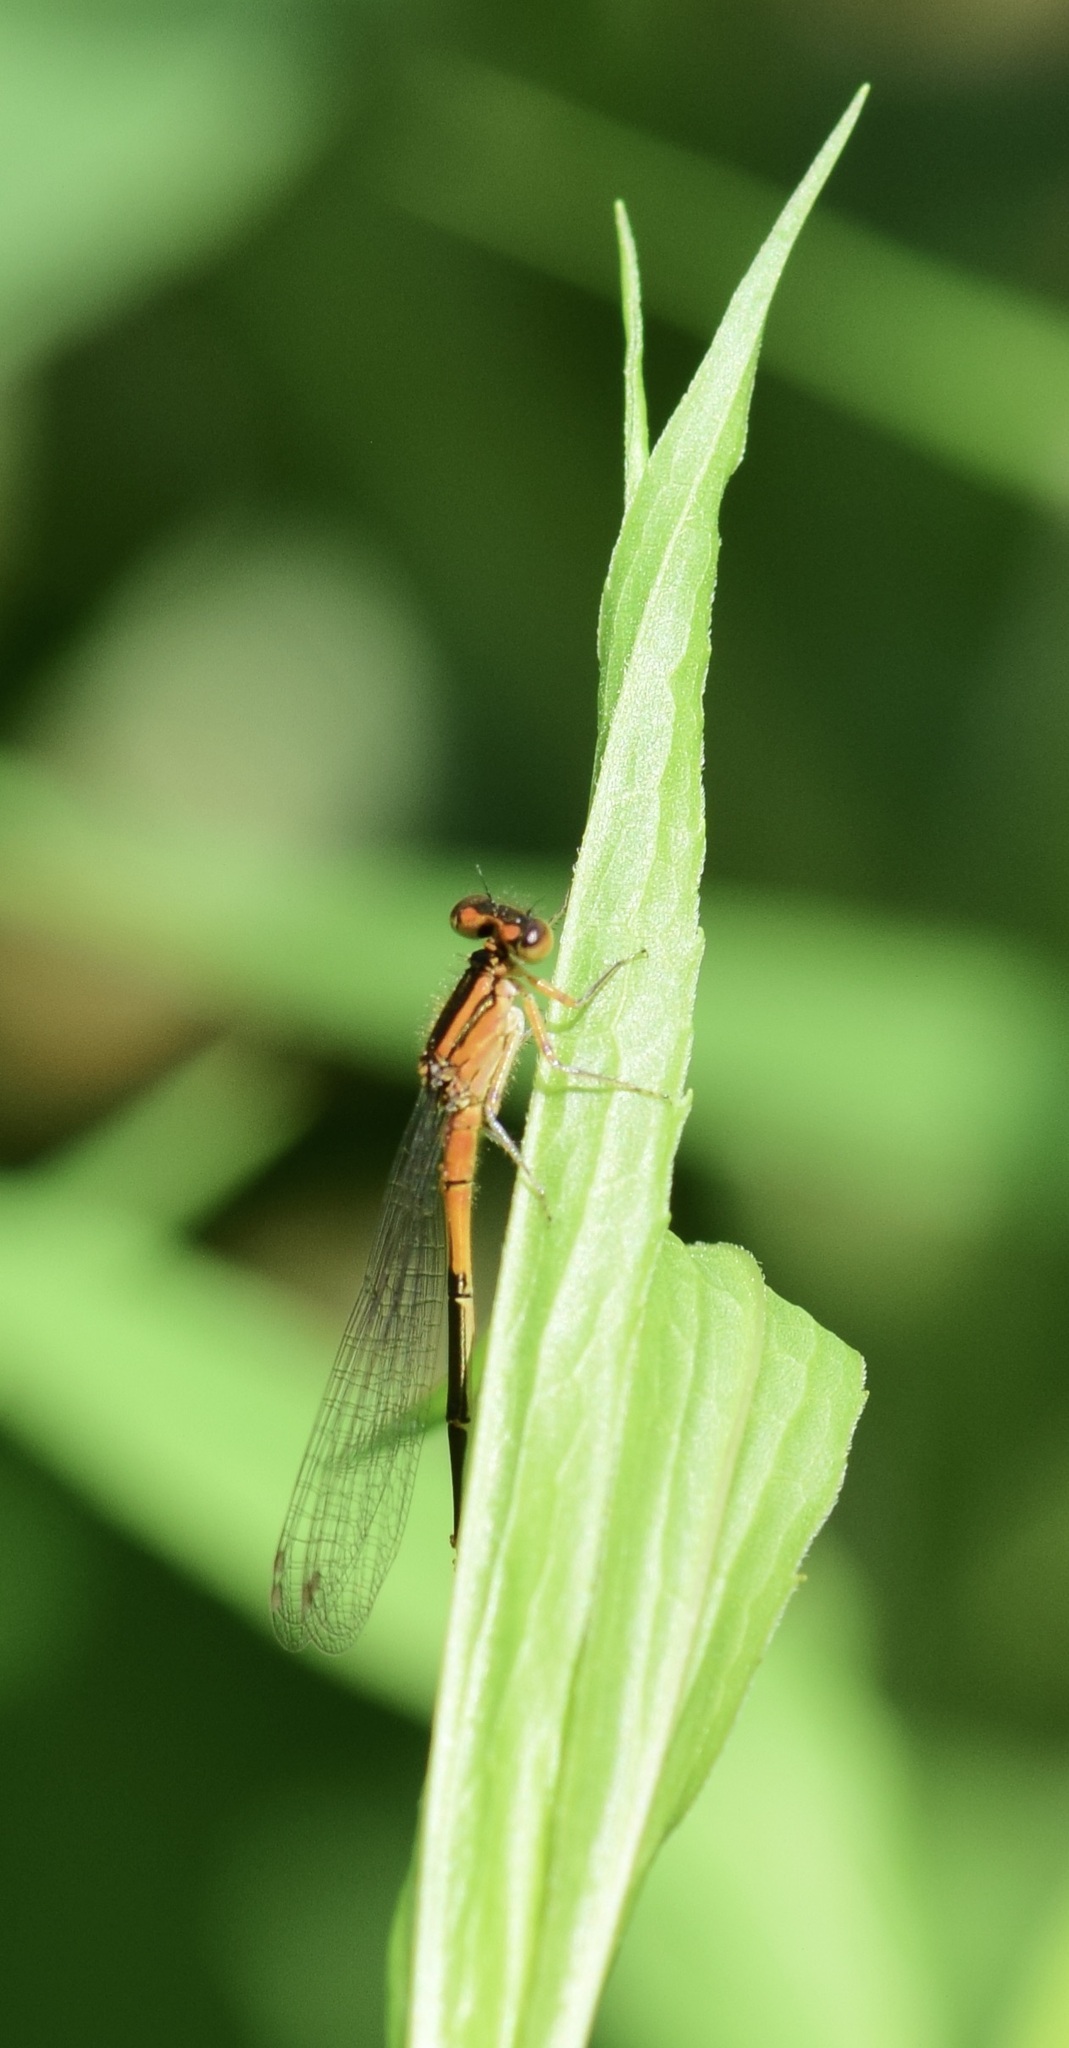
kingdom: Animalia
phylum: Arthropoda
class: Insecta
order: Odonata
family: Coenagrionidae
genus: Ischnura
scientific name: Ischnura verticalis
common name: Eastern forktail
